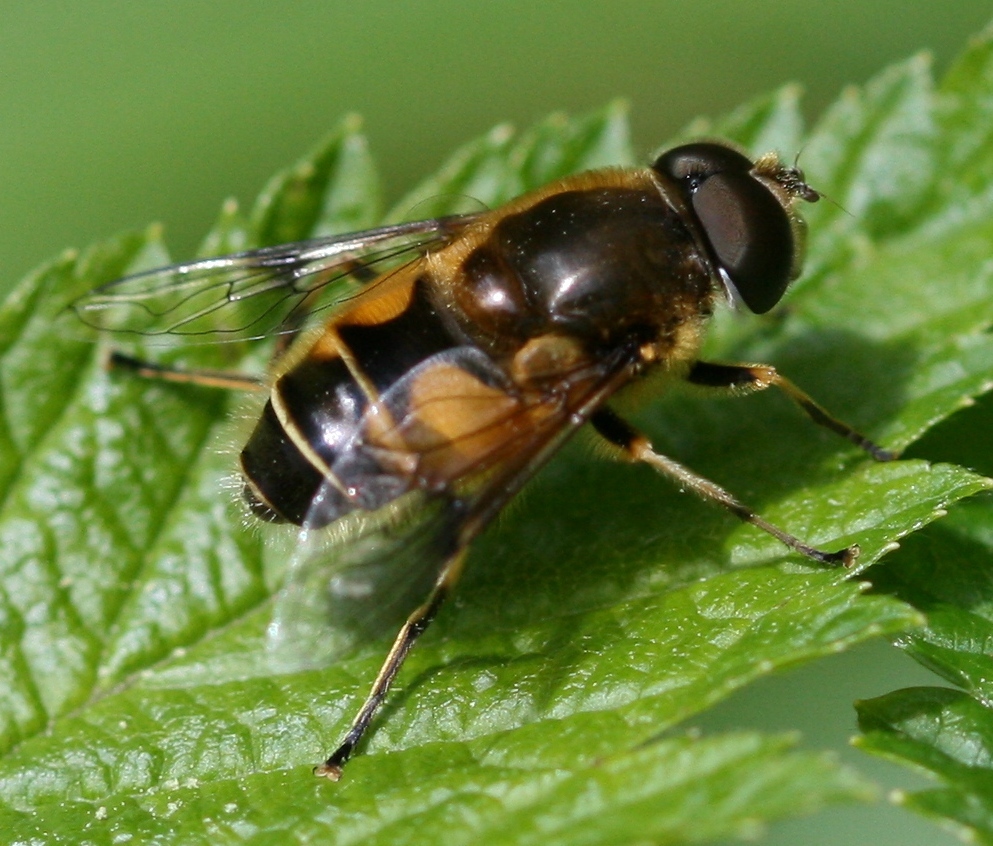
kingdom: Animalia
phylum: Arthropoda
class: Insecta
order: Diptera
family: Syrphidae
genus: Cheilosia
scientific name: Cheilosia morio
